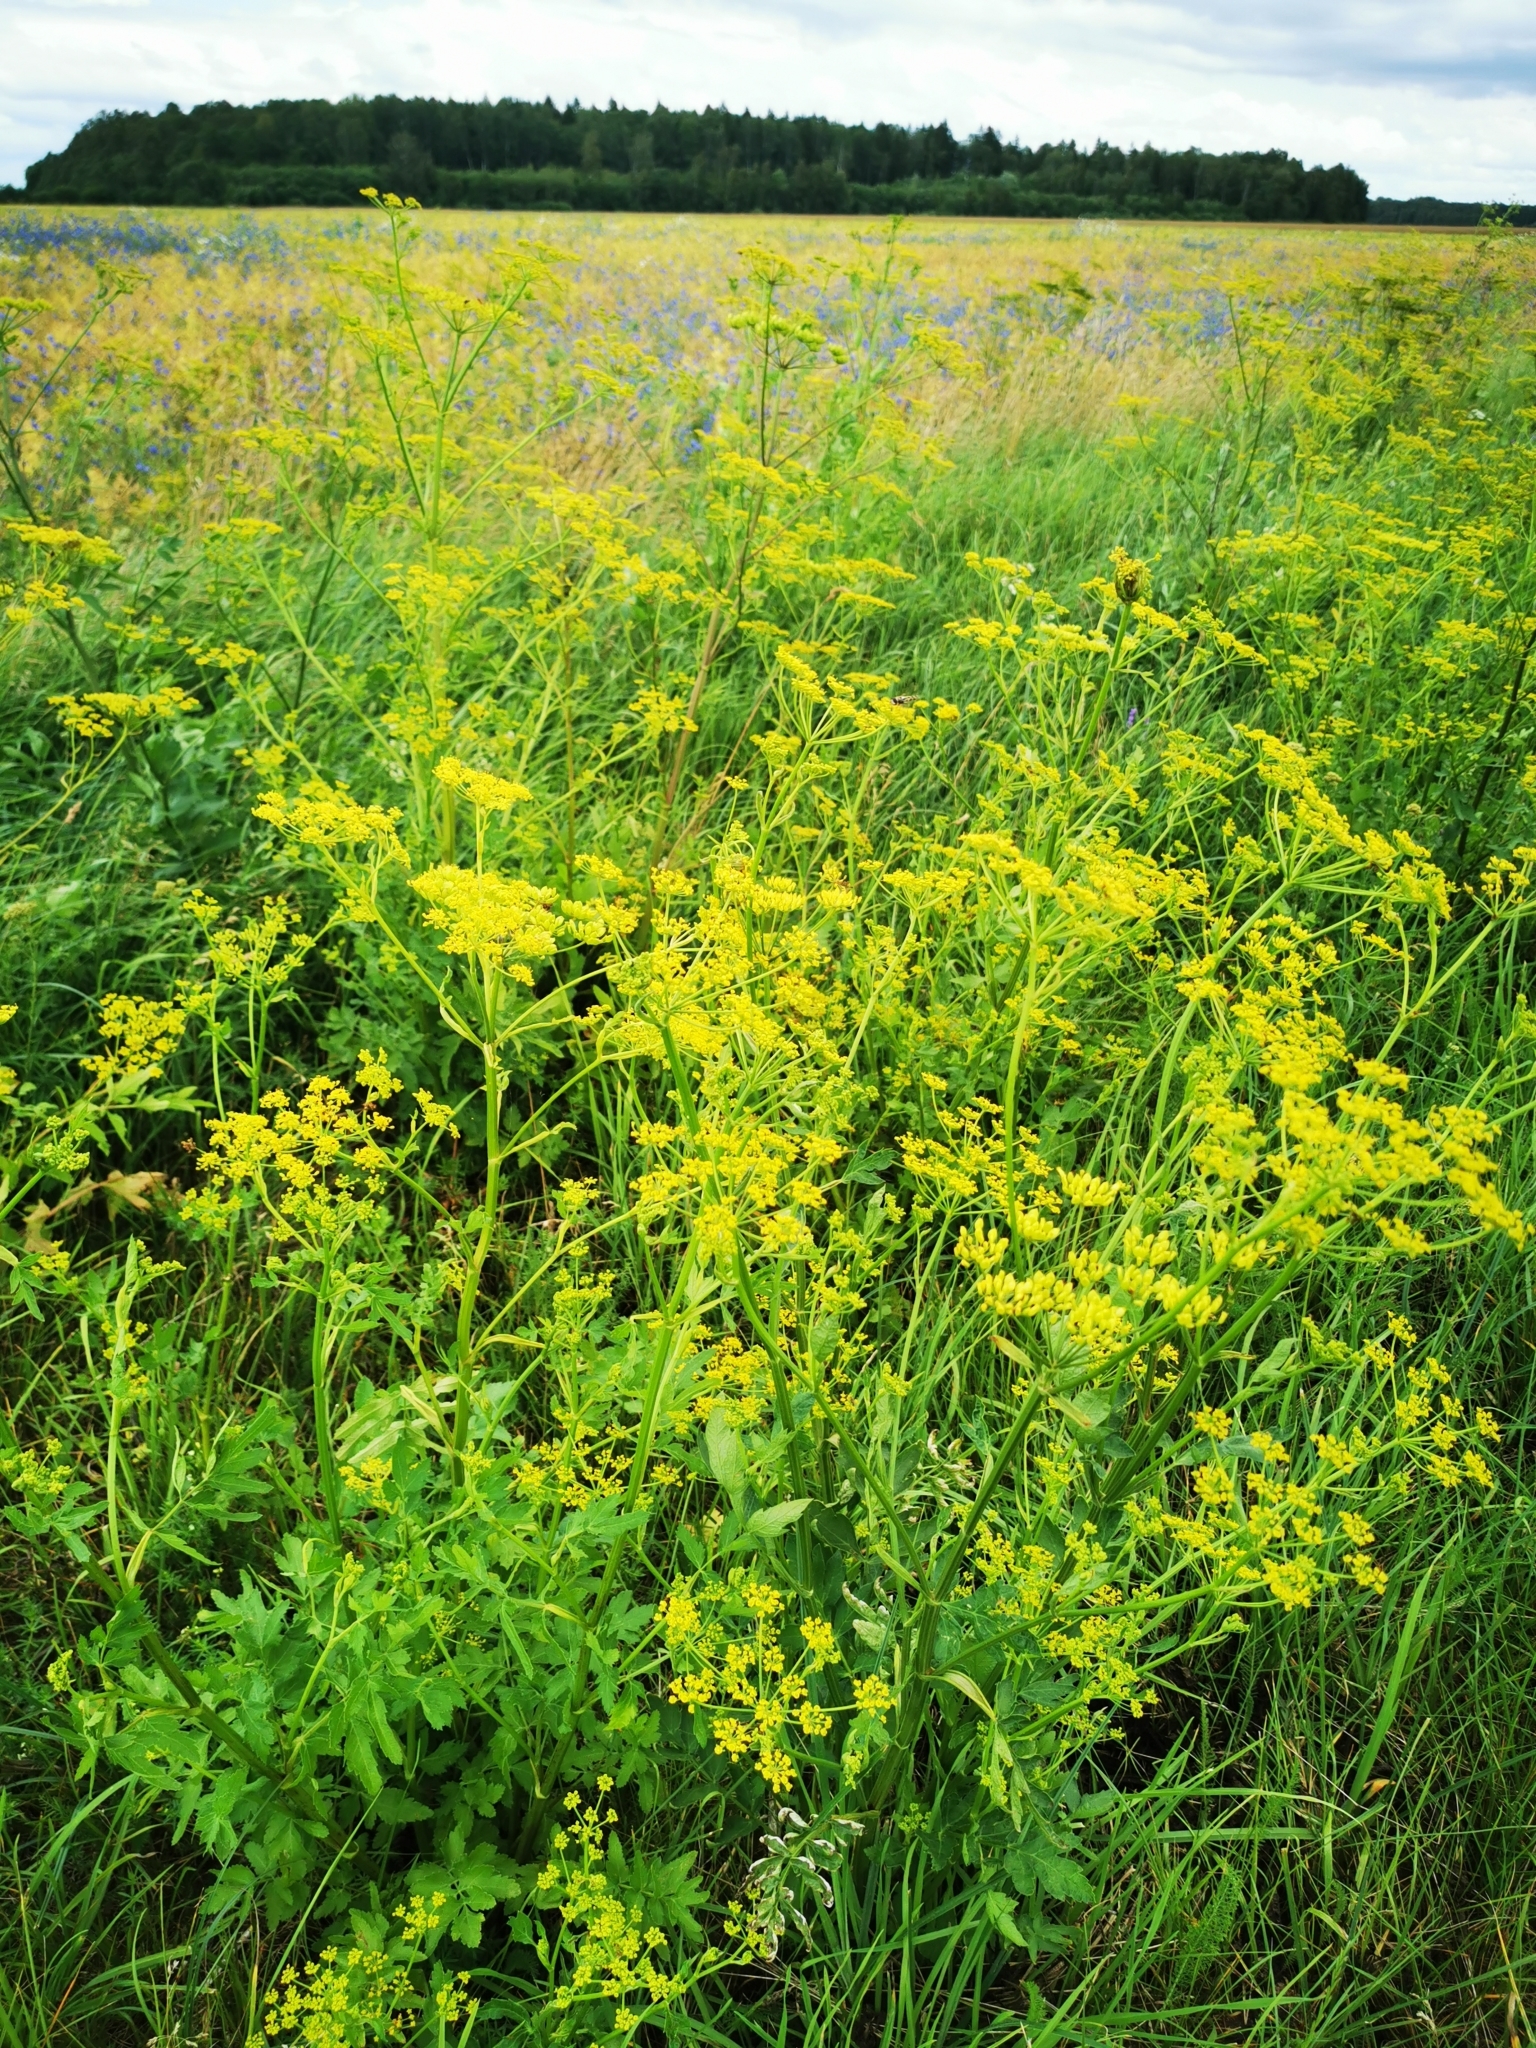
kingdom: Plantae
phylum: Tracheophyta
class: Magnoliopsida
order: Apiales
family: Apiaceae
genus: Pastinaca
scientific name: Pastinaca sativa
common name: Wild parsnip
